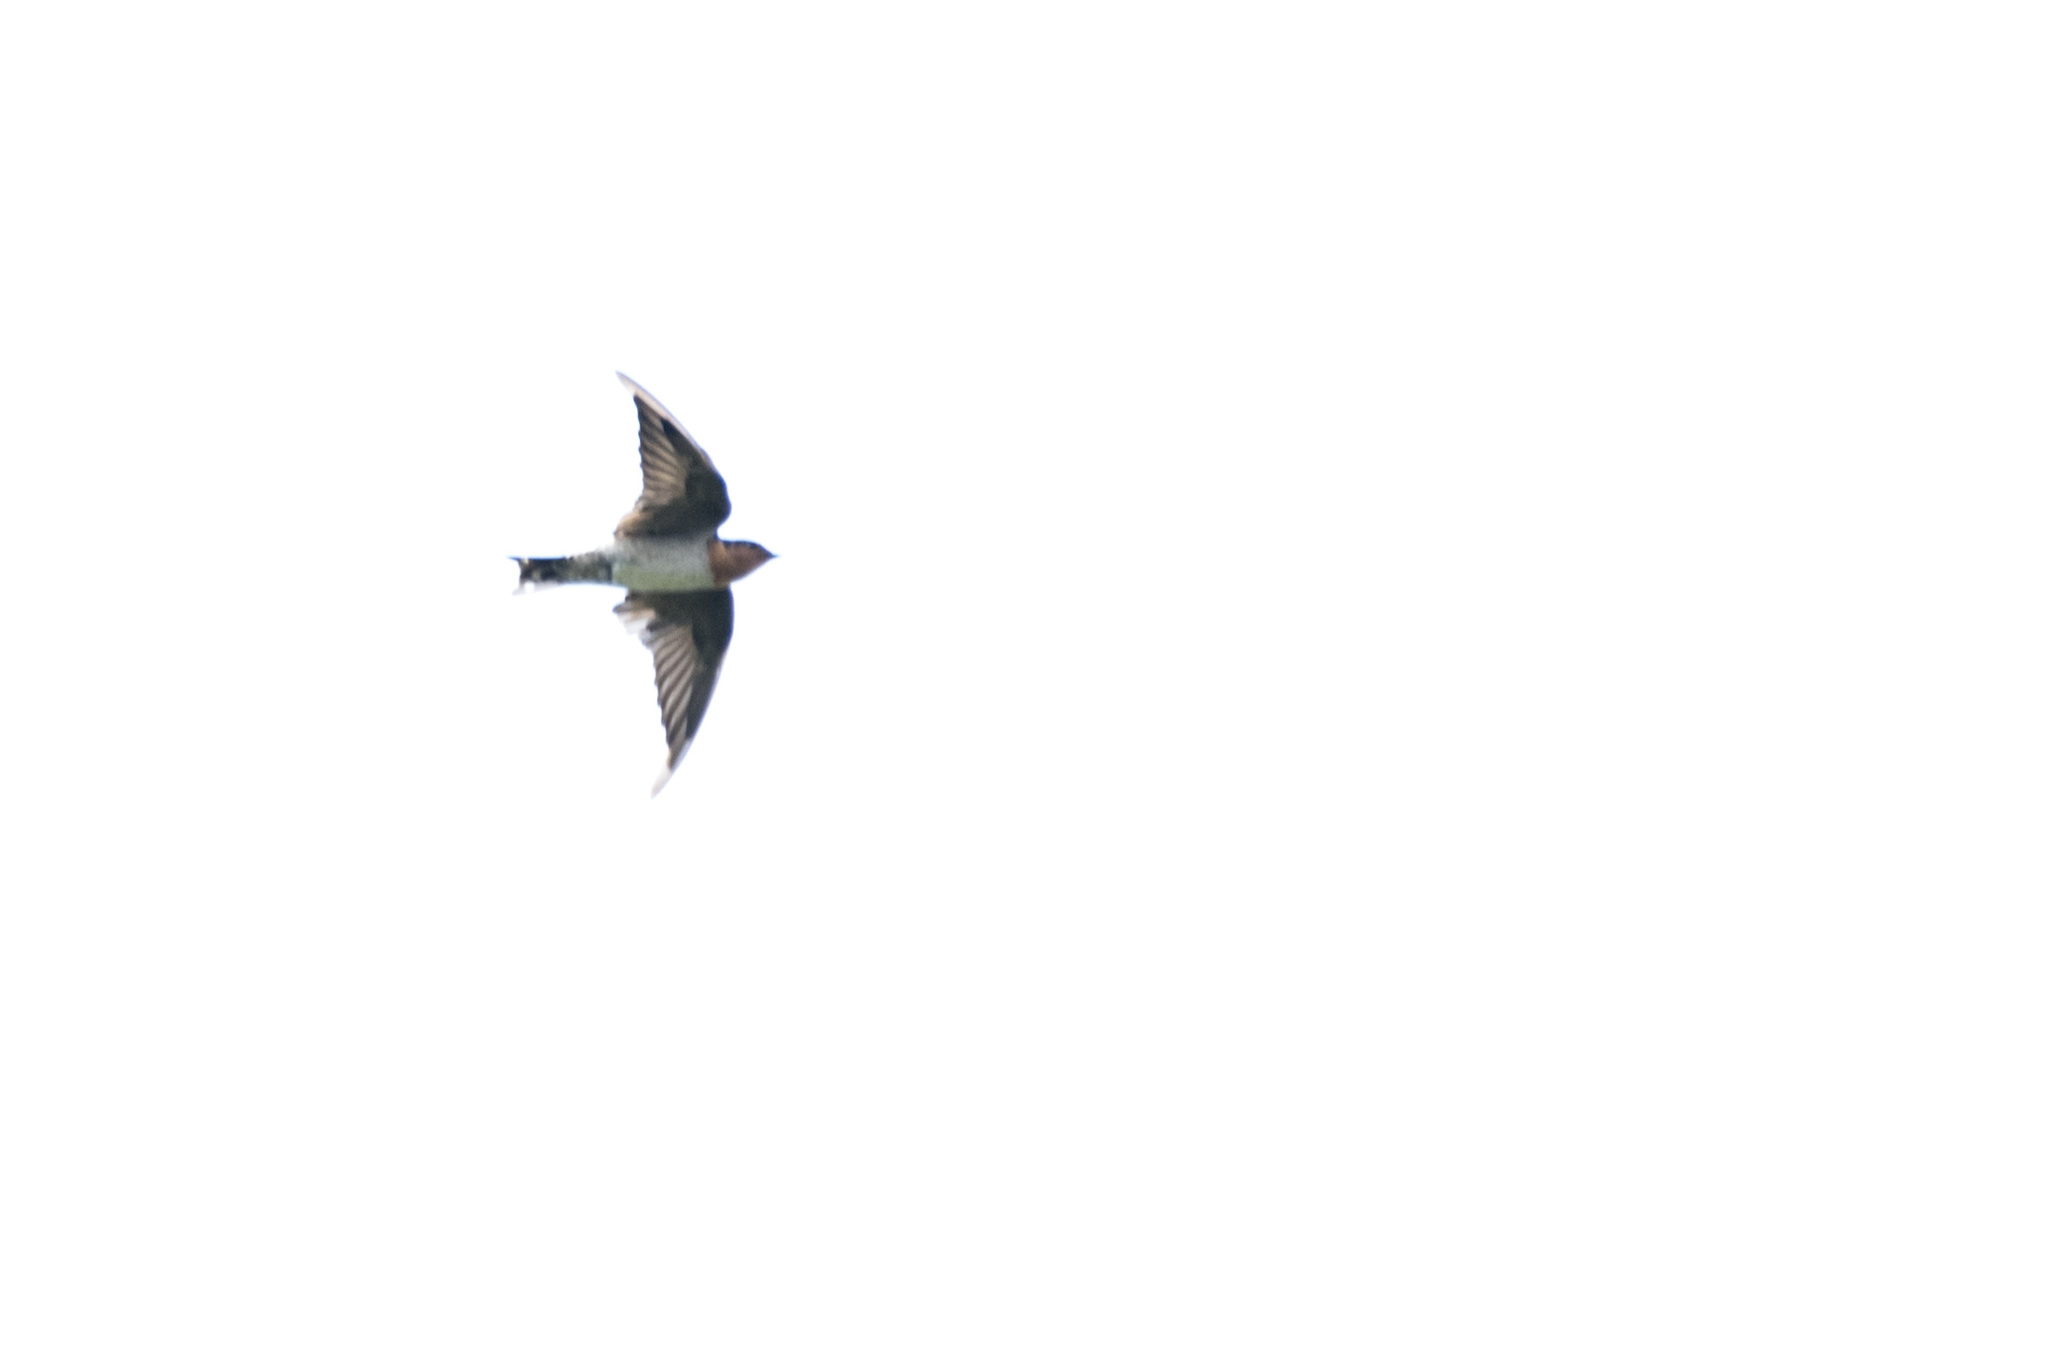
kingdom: Animalia
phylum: Chordata
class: Aves
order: Passeriformes
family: Hirundinidae
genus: Hirundo
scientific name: Hirundo tahitica
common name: Pacific swallow
